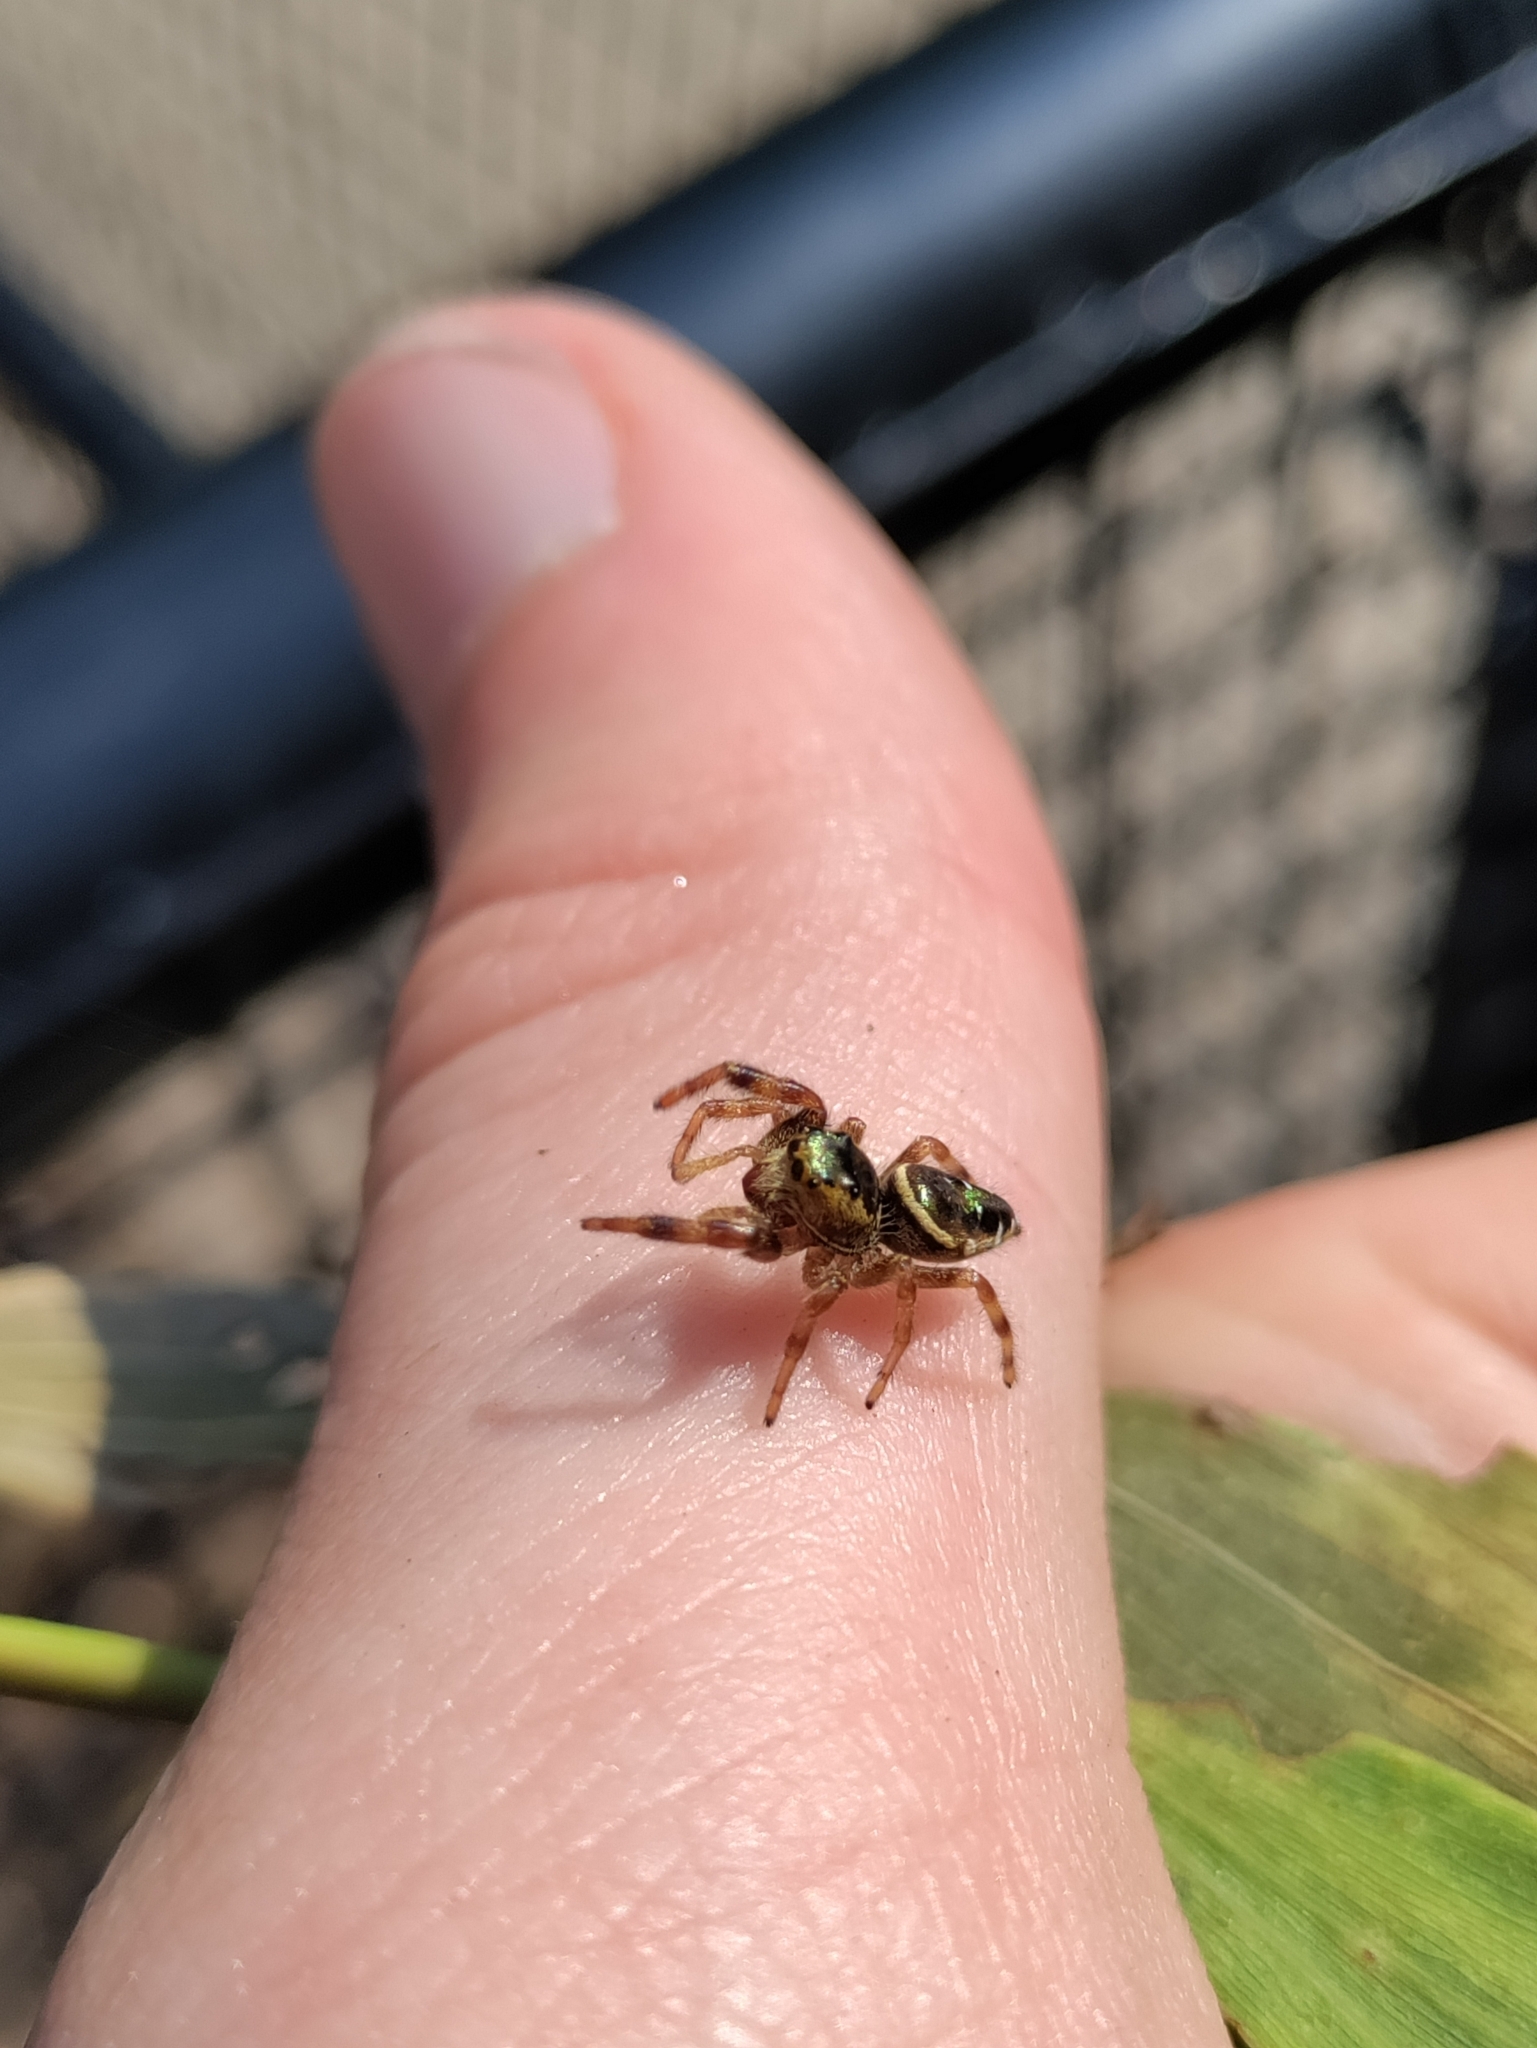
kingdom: Animalia
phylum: Arthropoda
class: Arachnida
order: Araneae
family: Salticidae
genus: Paraphidippus
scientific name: Paraphidippus aurantius
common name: Jumping spiders
